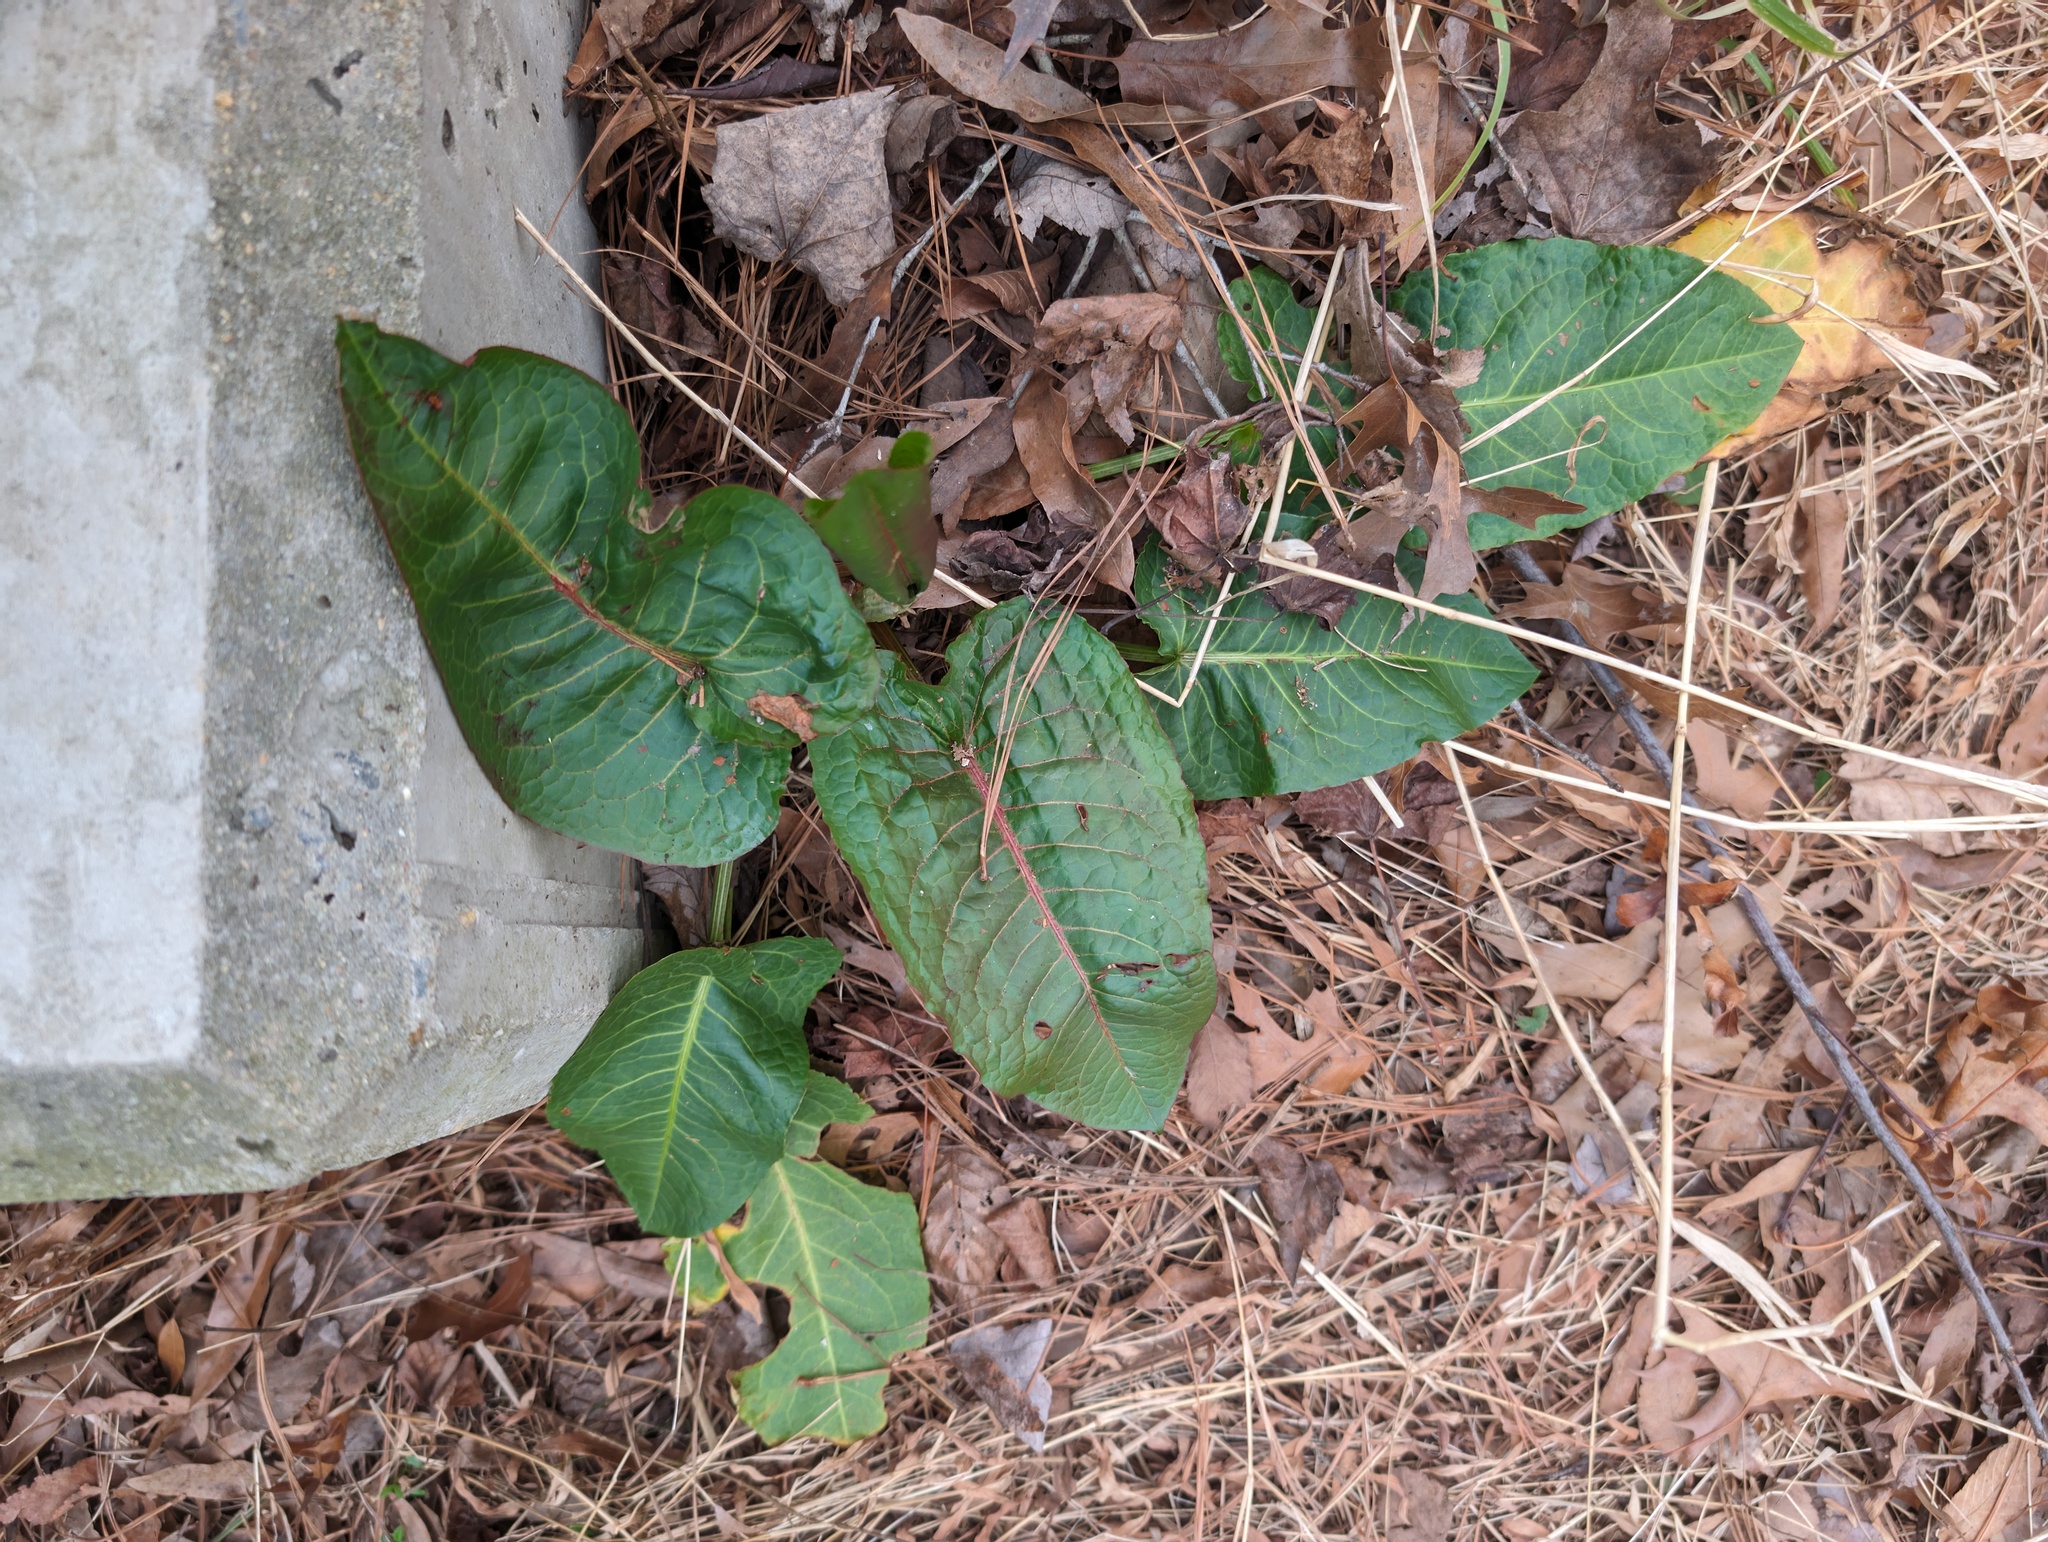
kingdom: Plantae
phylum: Tracheophyta
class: Magnoliopsida
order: Caryophyllales
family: Polygonaceae
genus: Rumex
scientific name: Rumex obtusifolius
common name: Bitter dock
